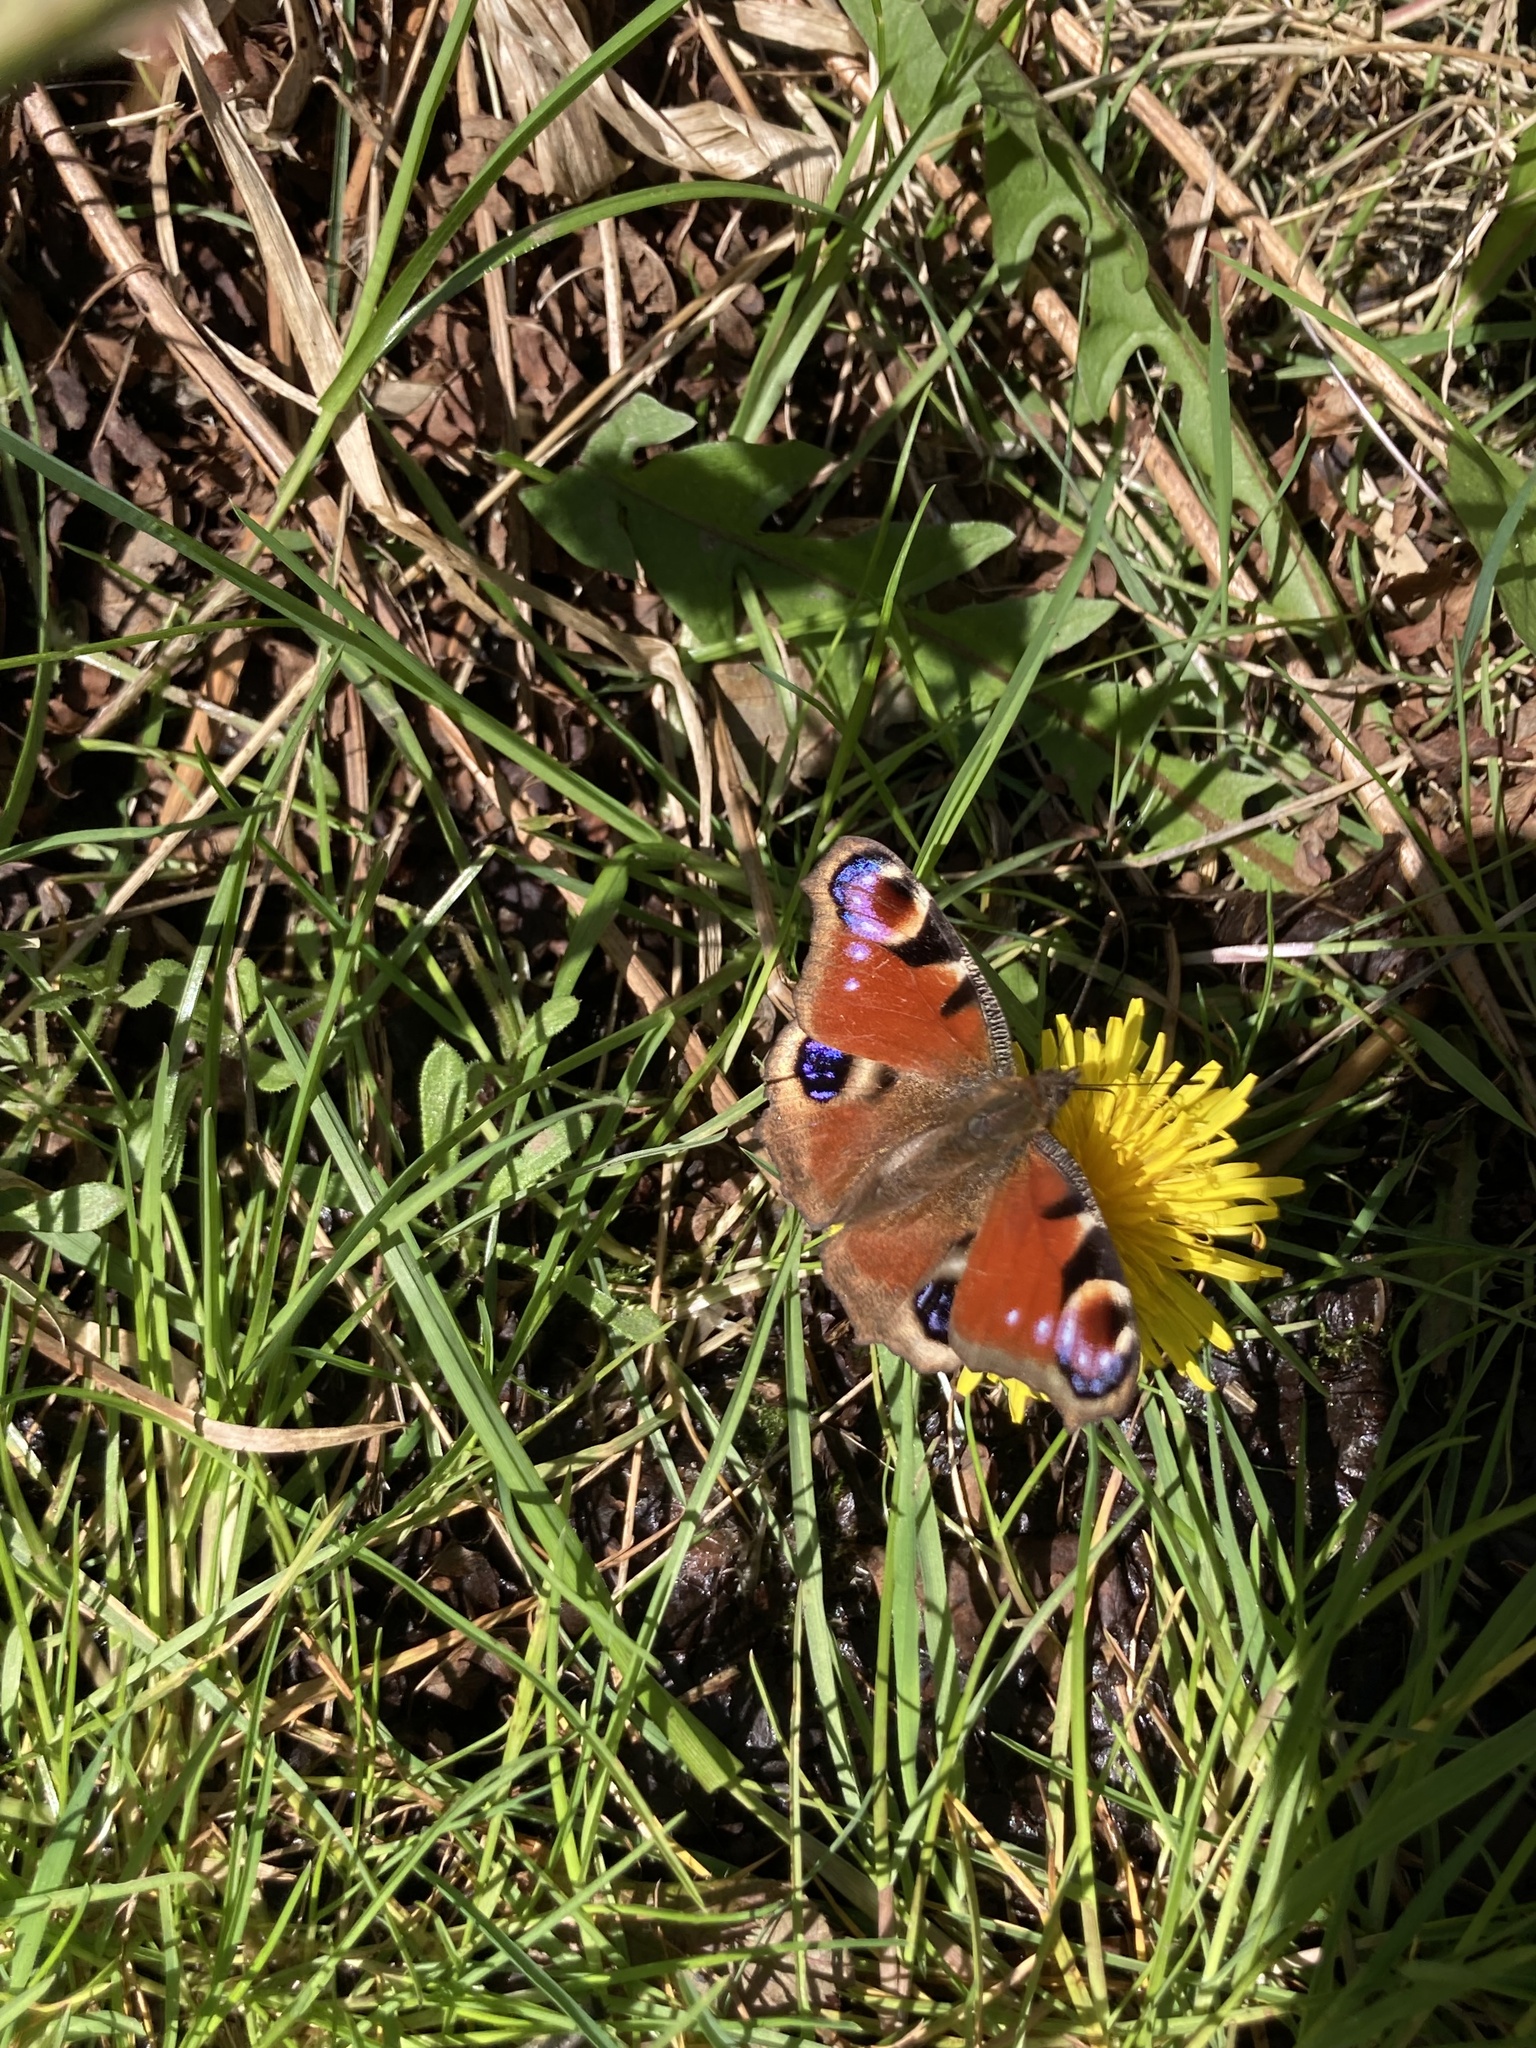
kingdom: Animalia
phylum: Arthropoda
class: Insecta
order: Lepidoptera
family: Nymphalidae
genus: Aglais
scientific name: Aglais io
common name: Peacock
